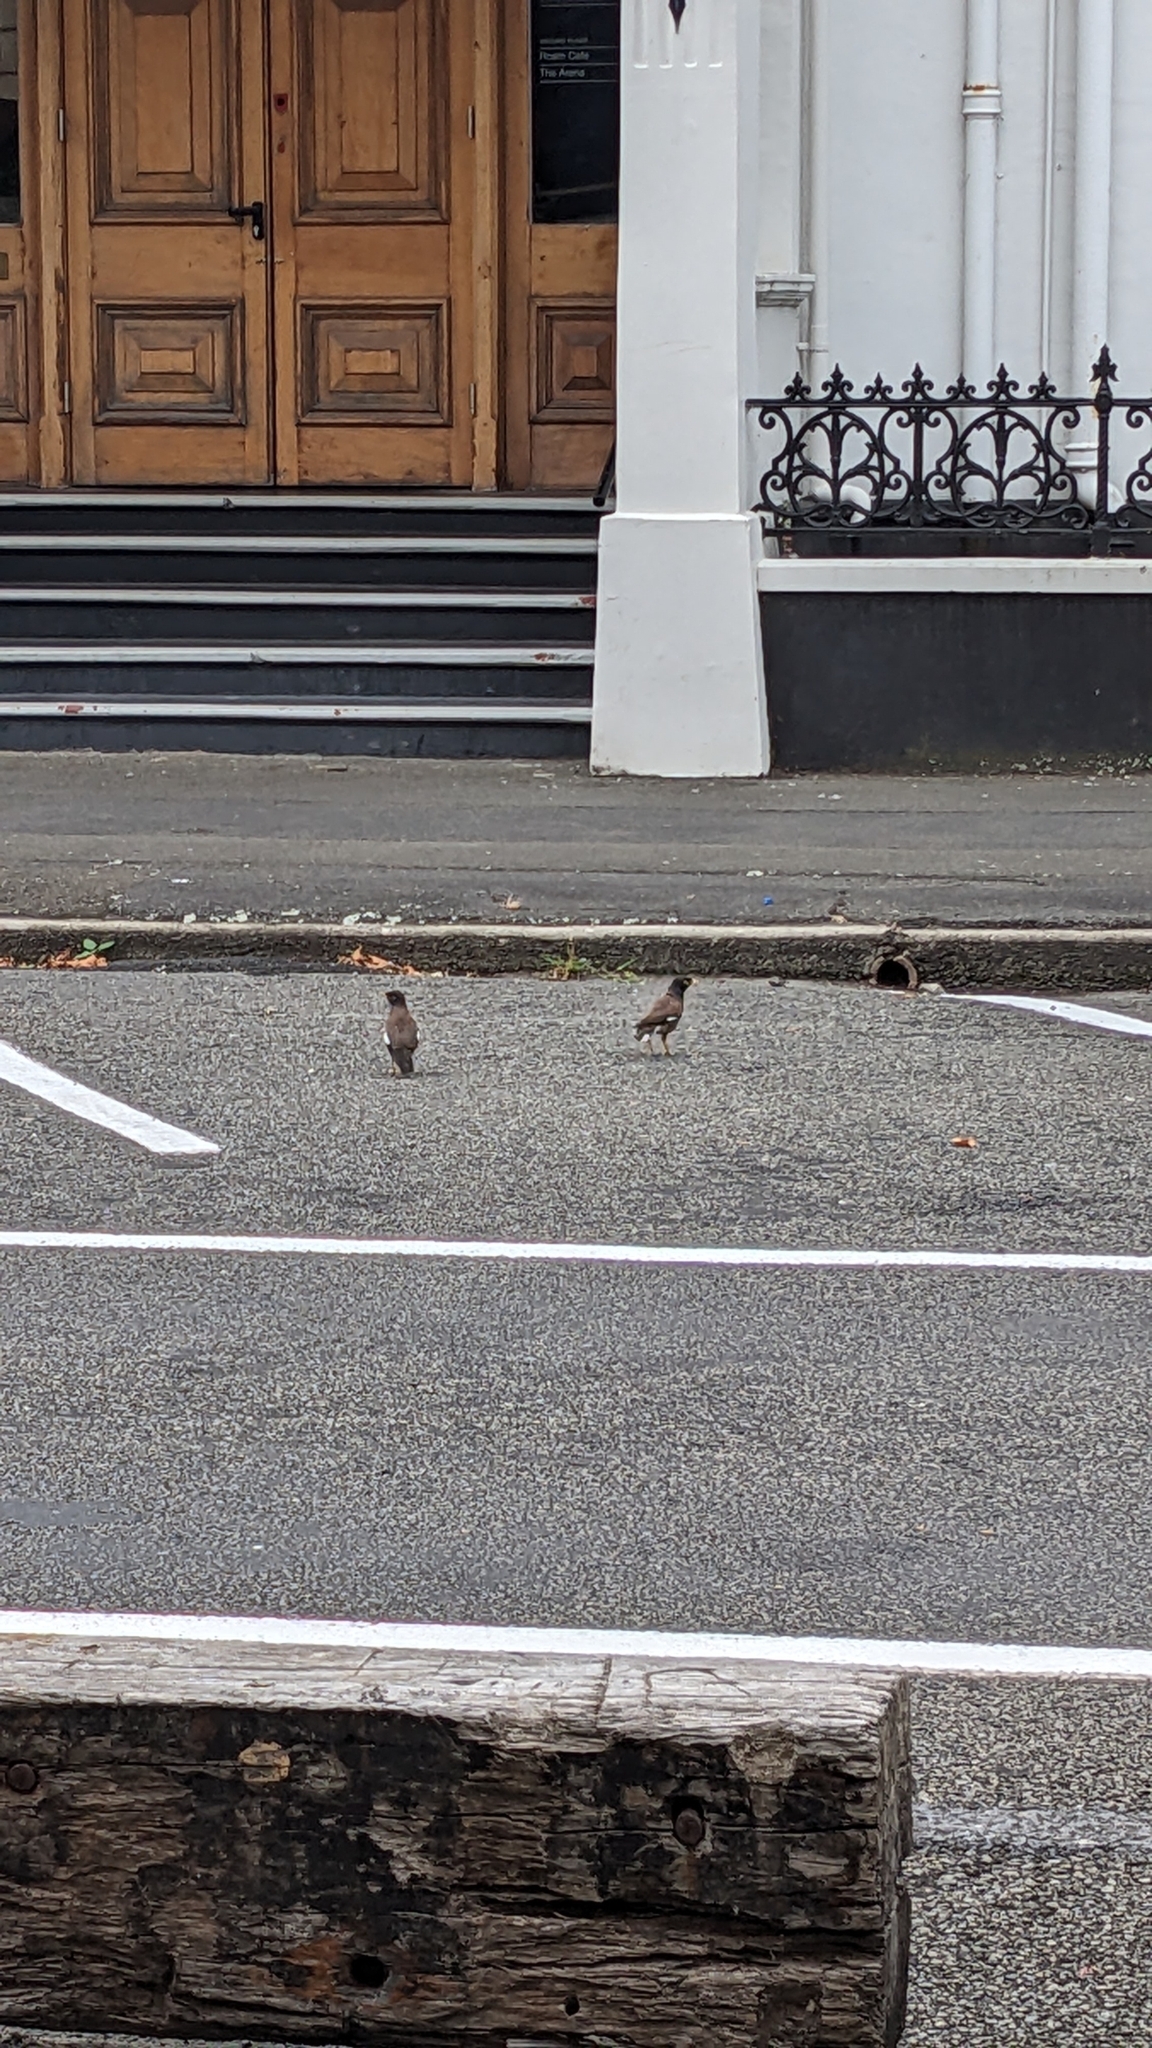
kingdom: Animalia
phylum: Chordata
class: Aves
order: Passeriformes
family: Sturnidae
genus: Acridotheres
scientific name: Acridotheres tristis
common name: Common myna
